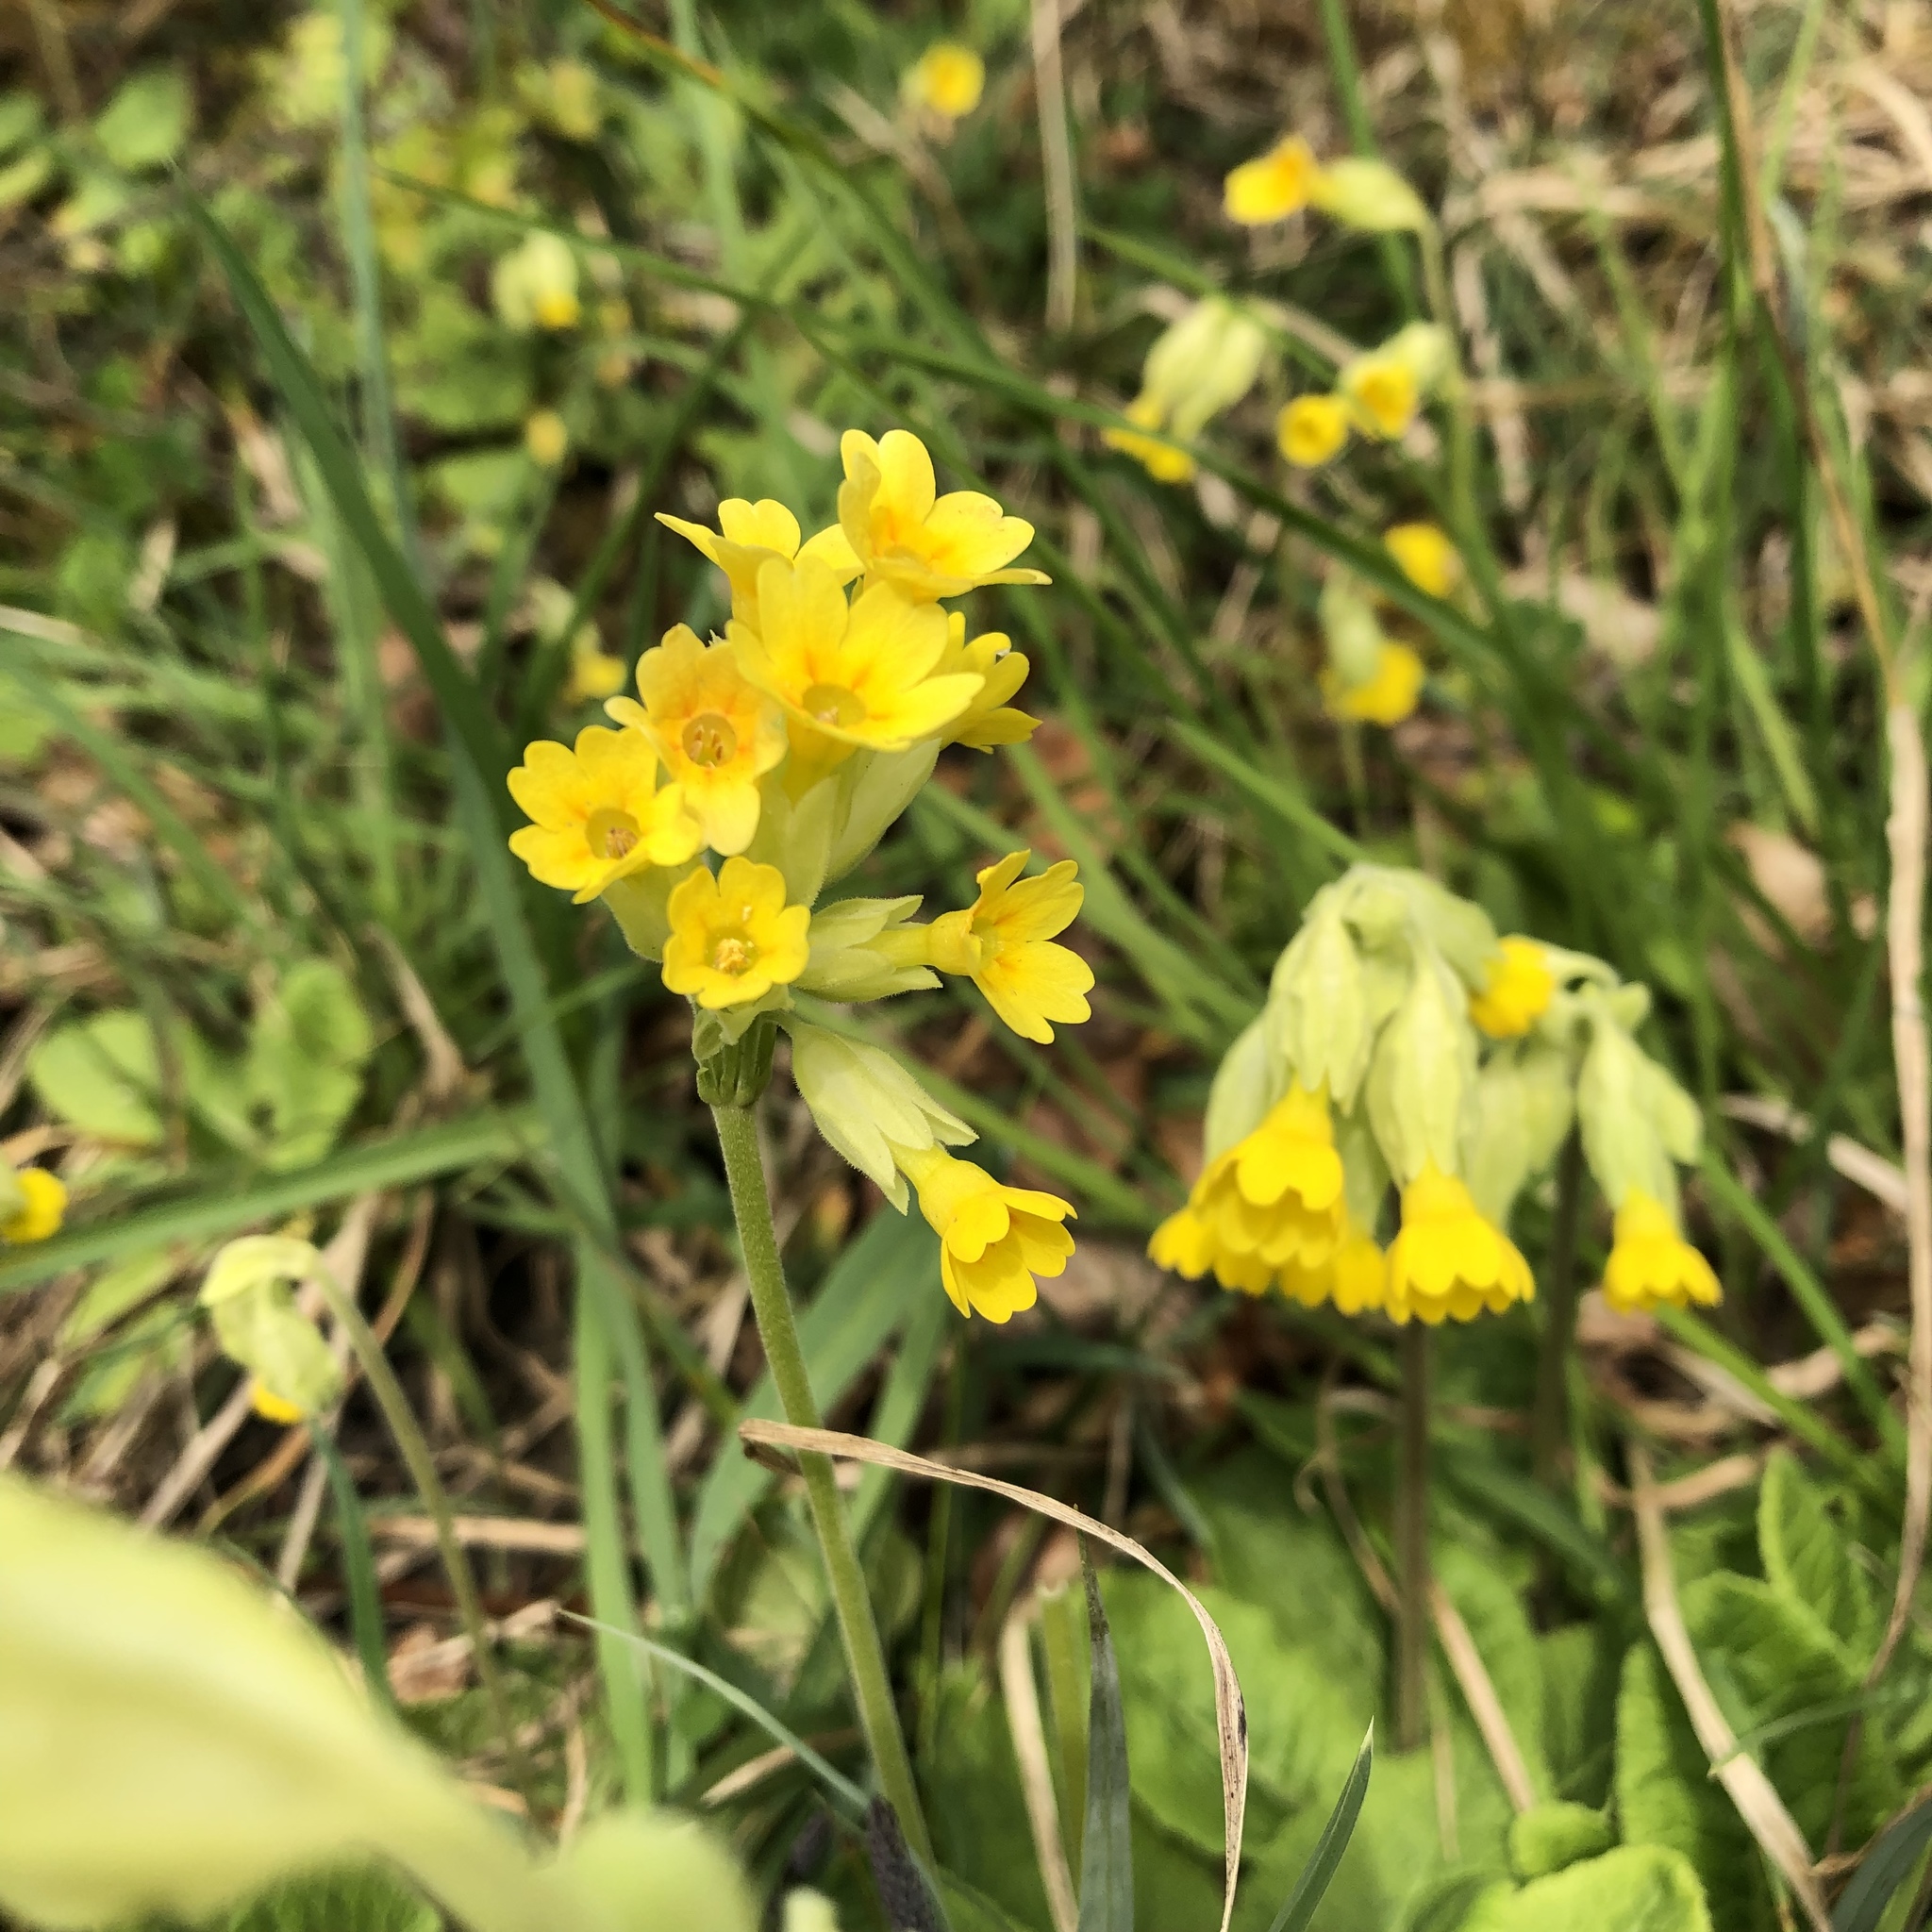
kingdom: Plantae
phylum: Tracheophyta
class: Magnoliopsida
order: Ericales
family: Primulaceae
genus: Primula
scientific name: Primula veris
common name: Cowslip
